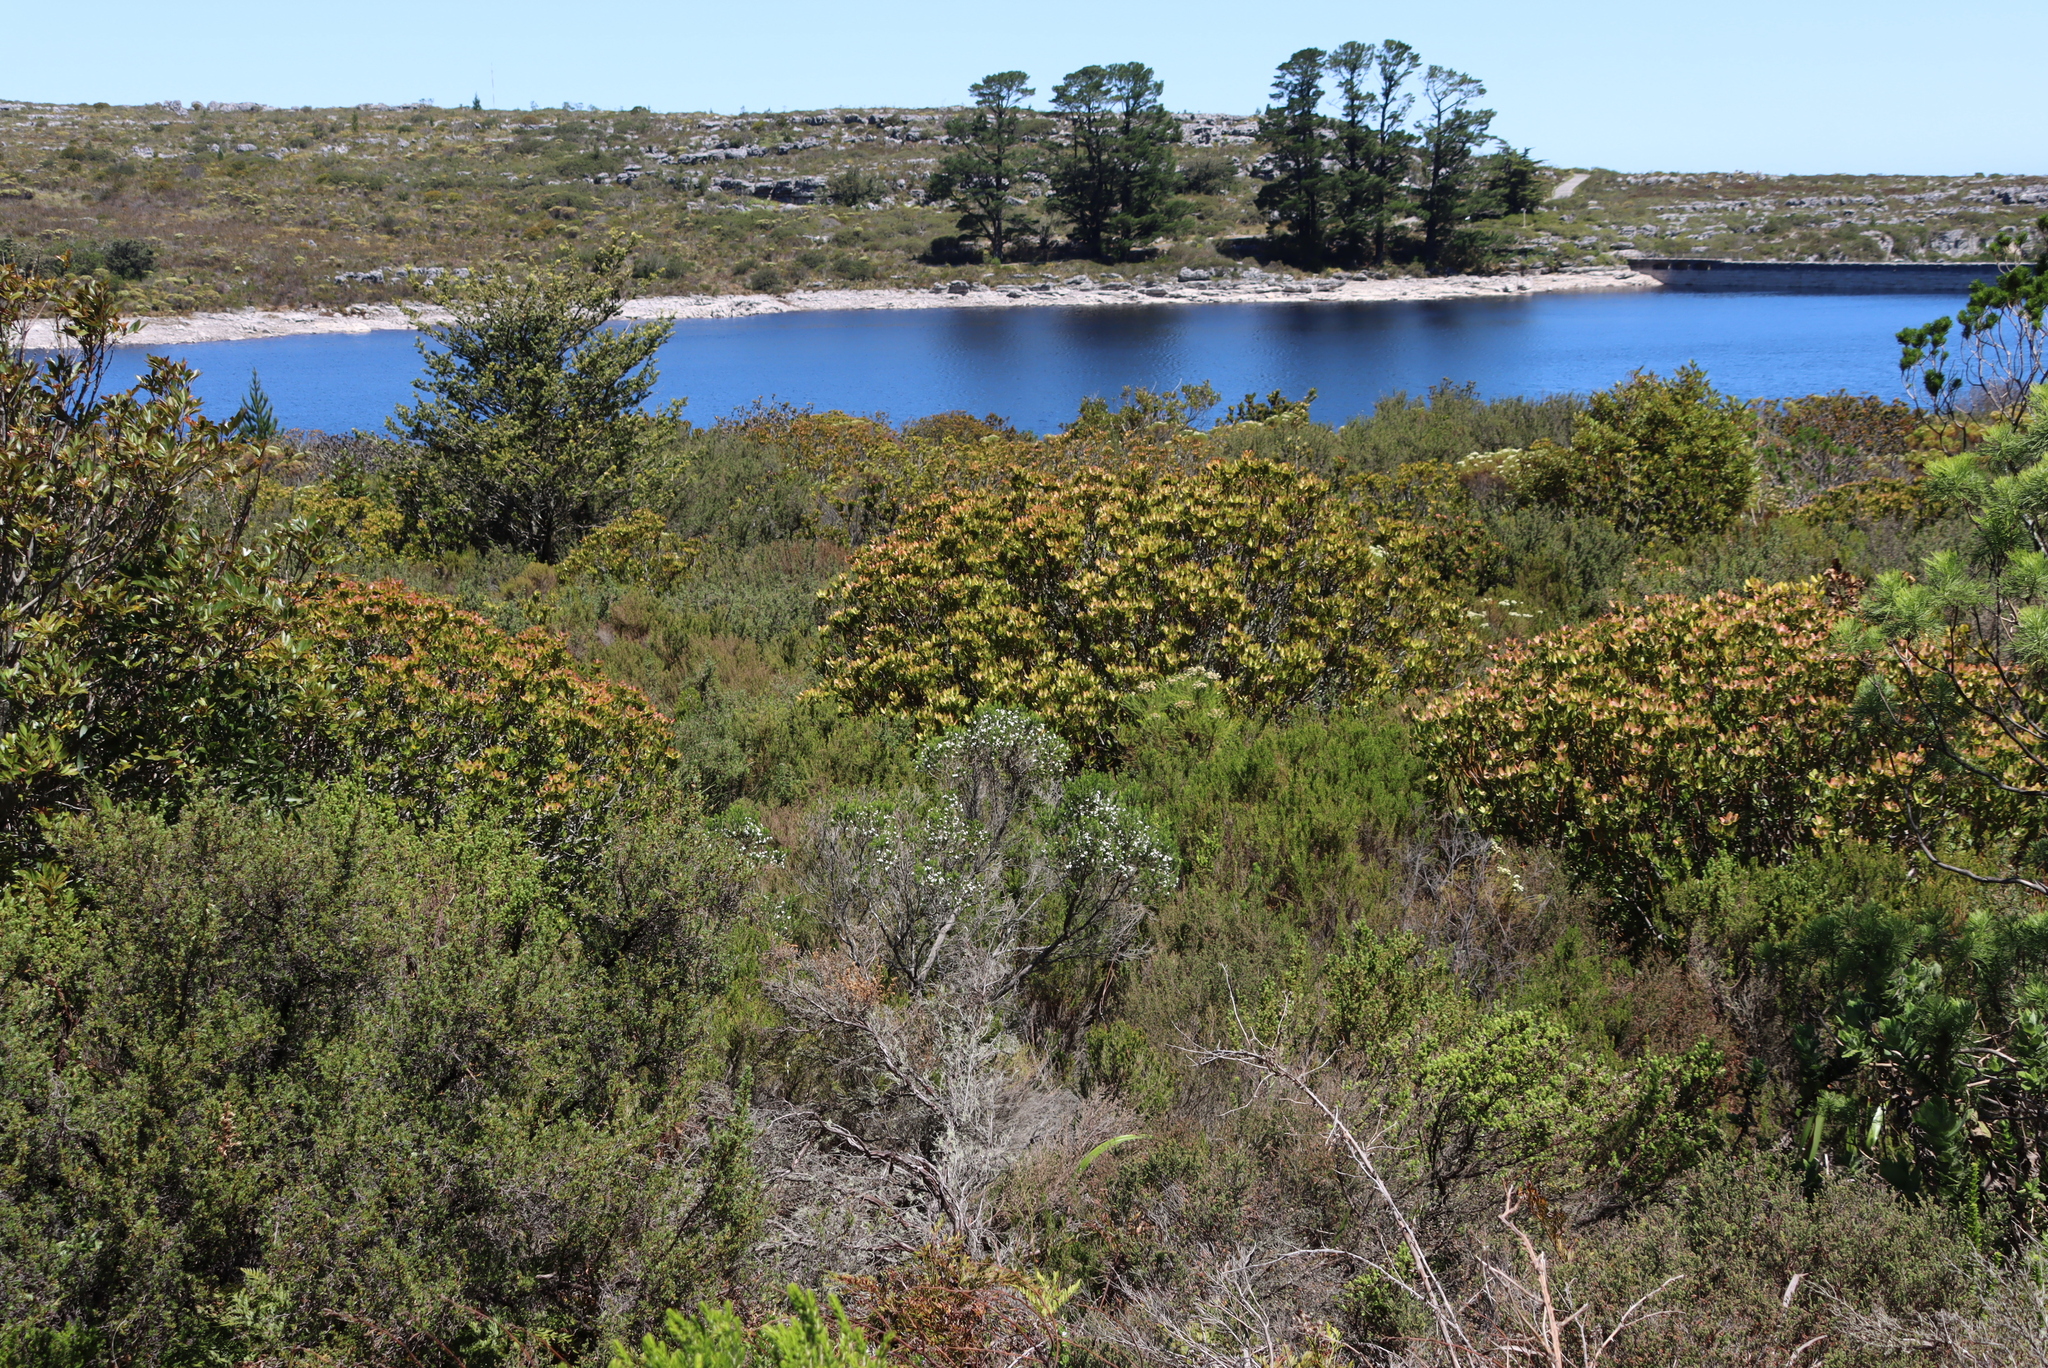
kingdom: Plantae
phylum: Tracheophyta
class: Magnoliopsida
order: Ericales
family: Ericaceae
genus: Erica
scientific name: Erica triflora
